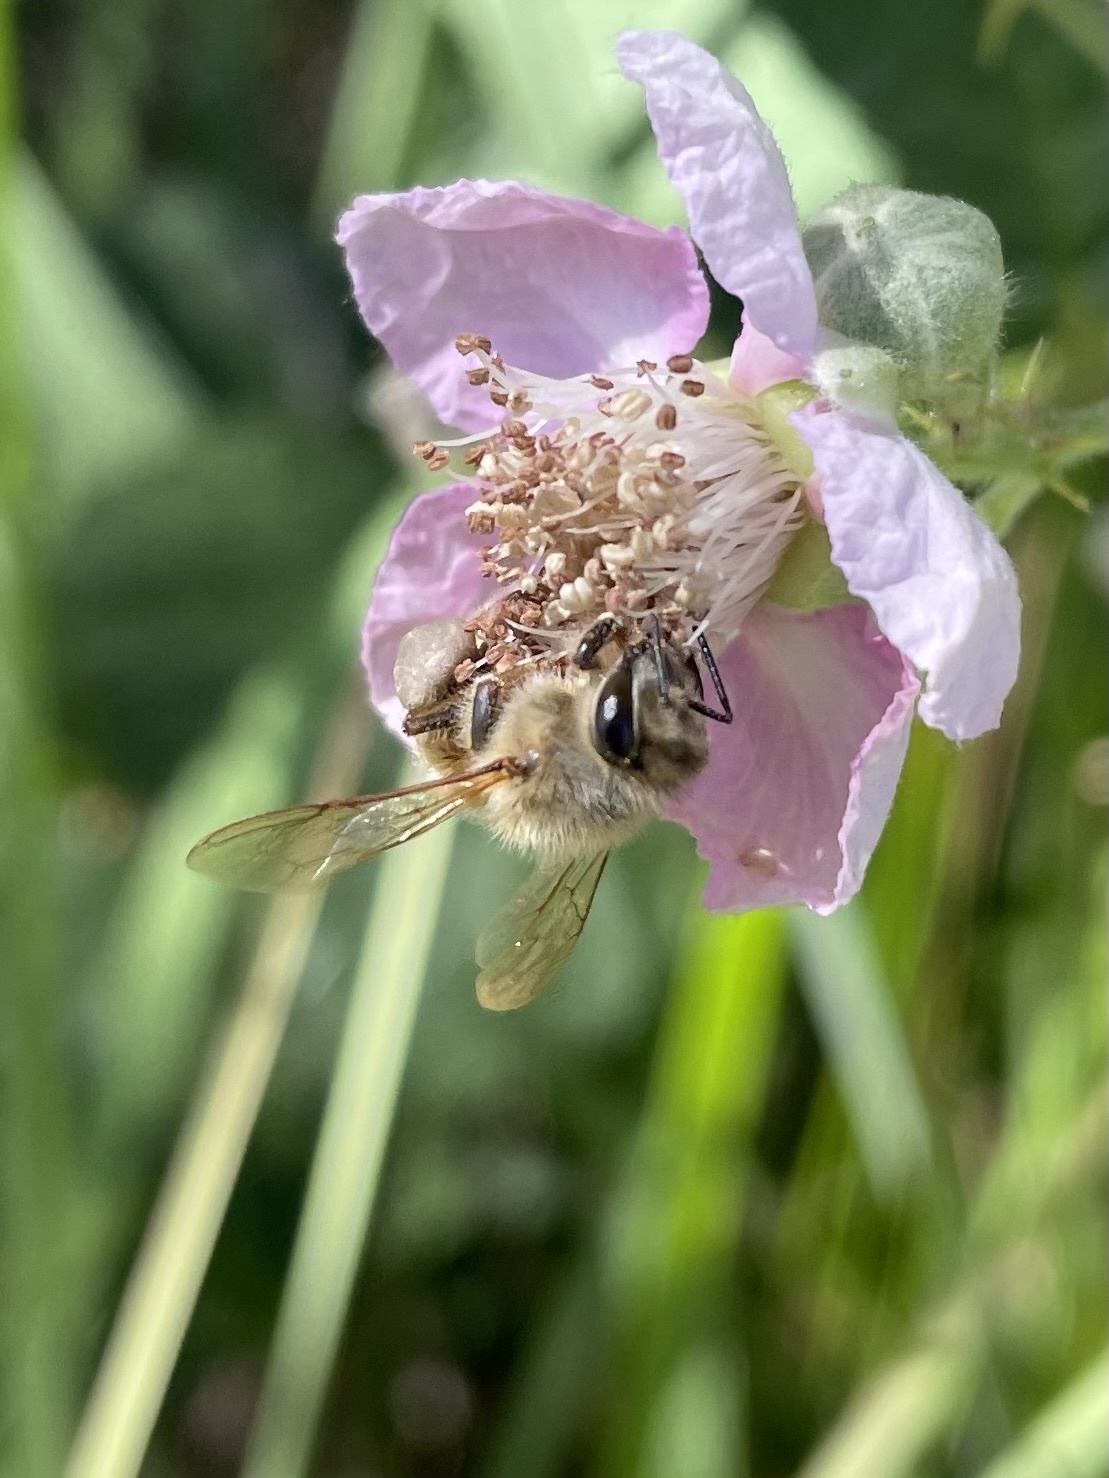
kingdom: Animalia
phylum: Arthropoda
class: Insecta
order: Hymenoptera
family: Apidae
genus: Apis
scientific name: Apis mellifera
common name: Honey bee
